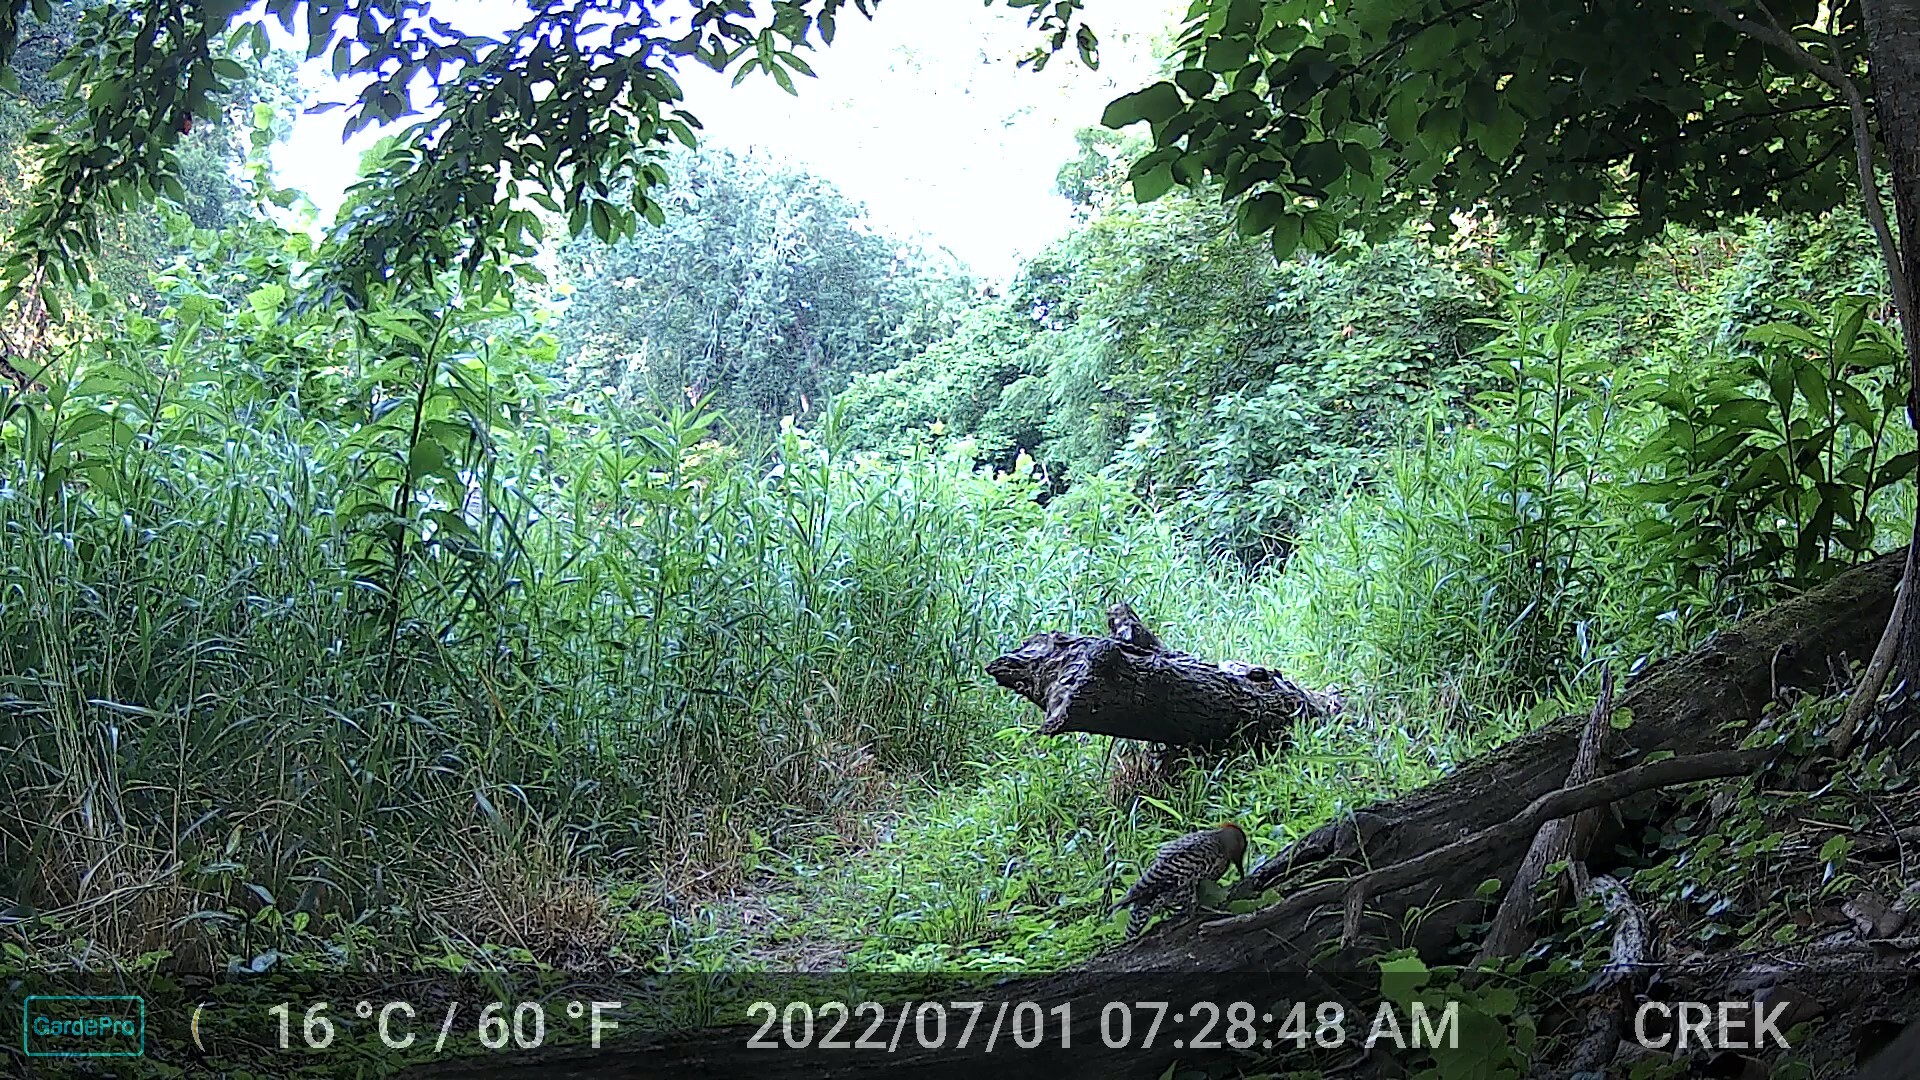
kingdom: Animalia
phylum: Chordata
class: Aves
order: Piciformes
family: Picidae
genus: Colaptes
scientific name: Colaptes auratus
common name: Northern flicker
